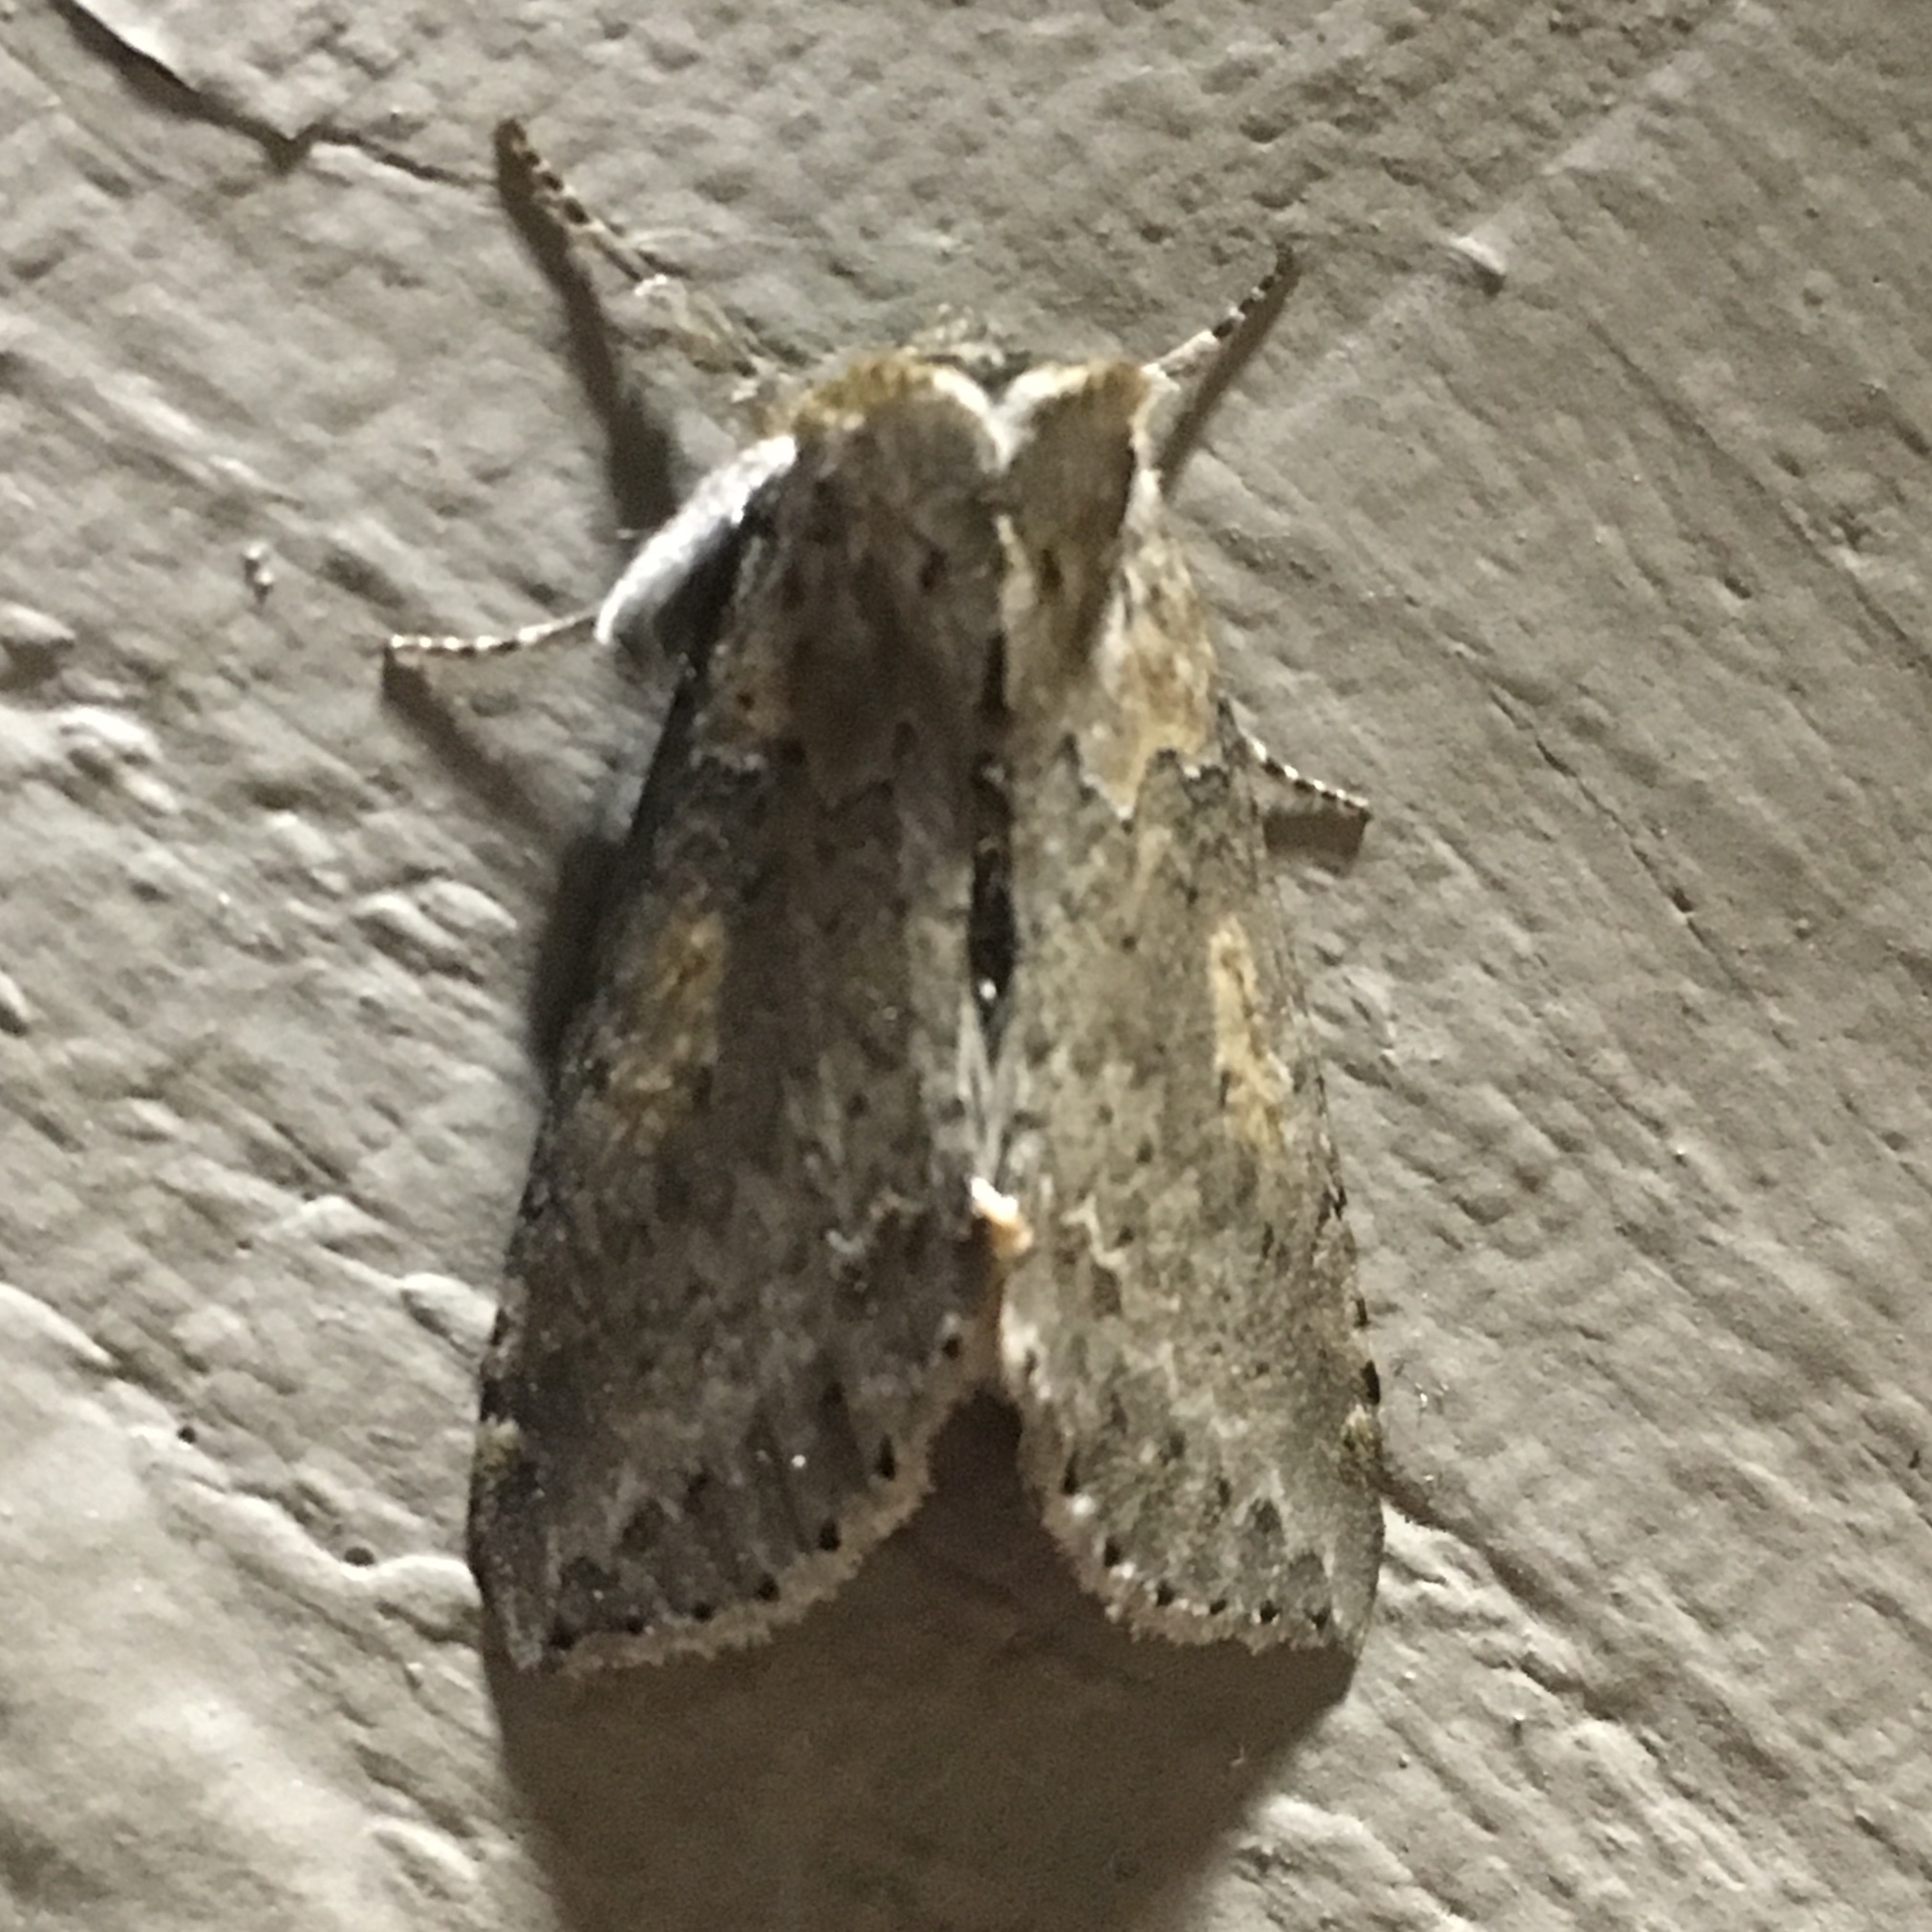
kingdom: Animalia
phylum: Arthropoda
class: Insecta
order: Lepidoptera
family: Drepanidae
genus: Pseudothyatira
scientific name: Pseudothyatira cymatophoroides
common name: Tufted thyatirid moth
